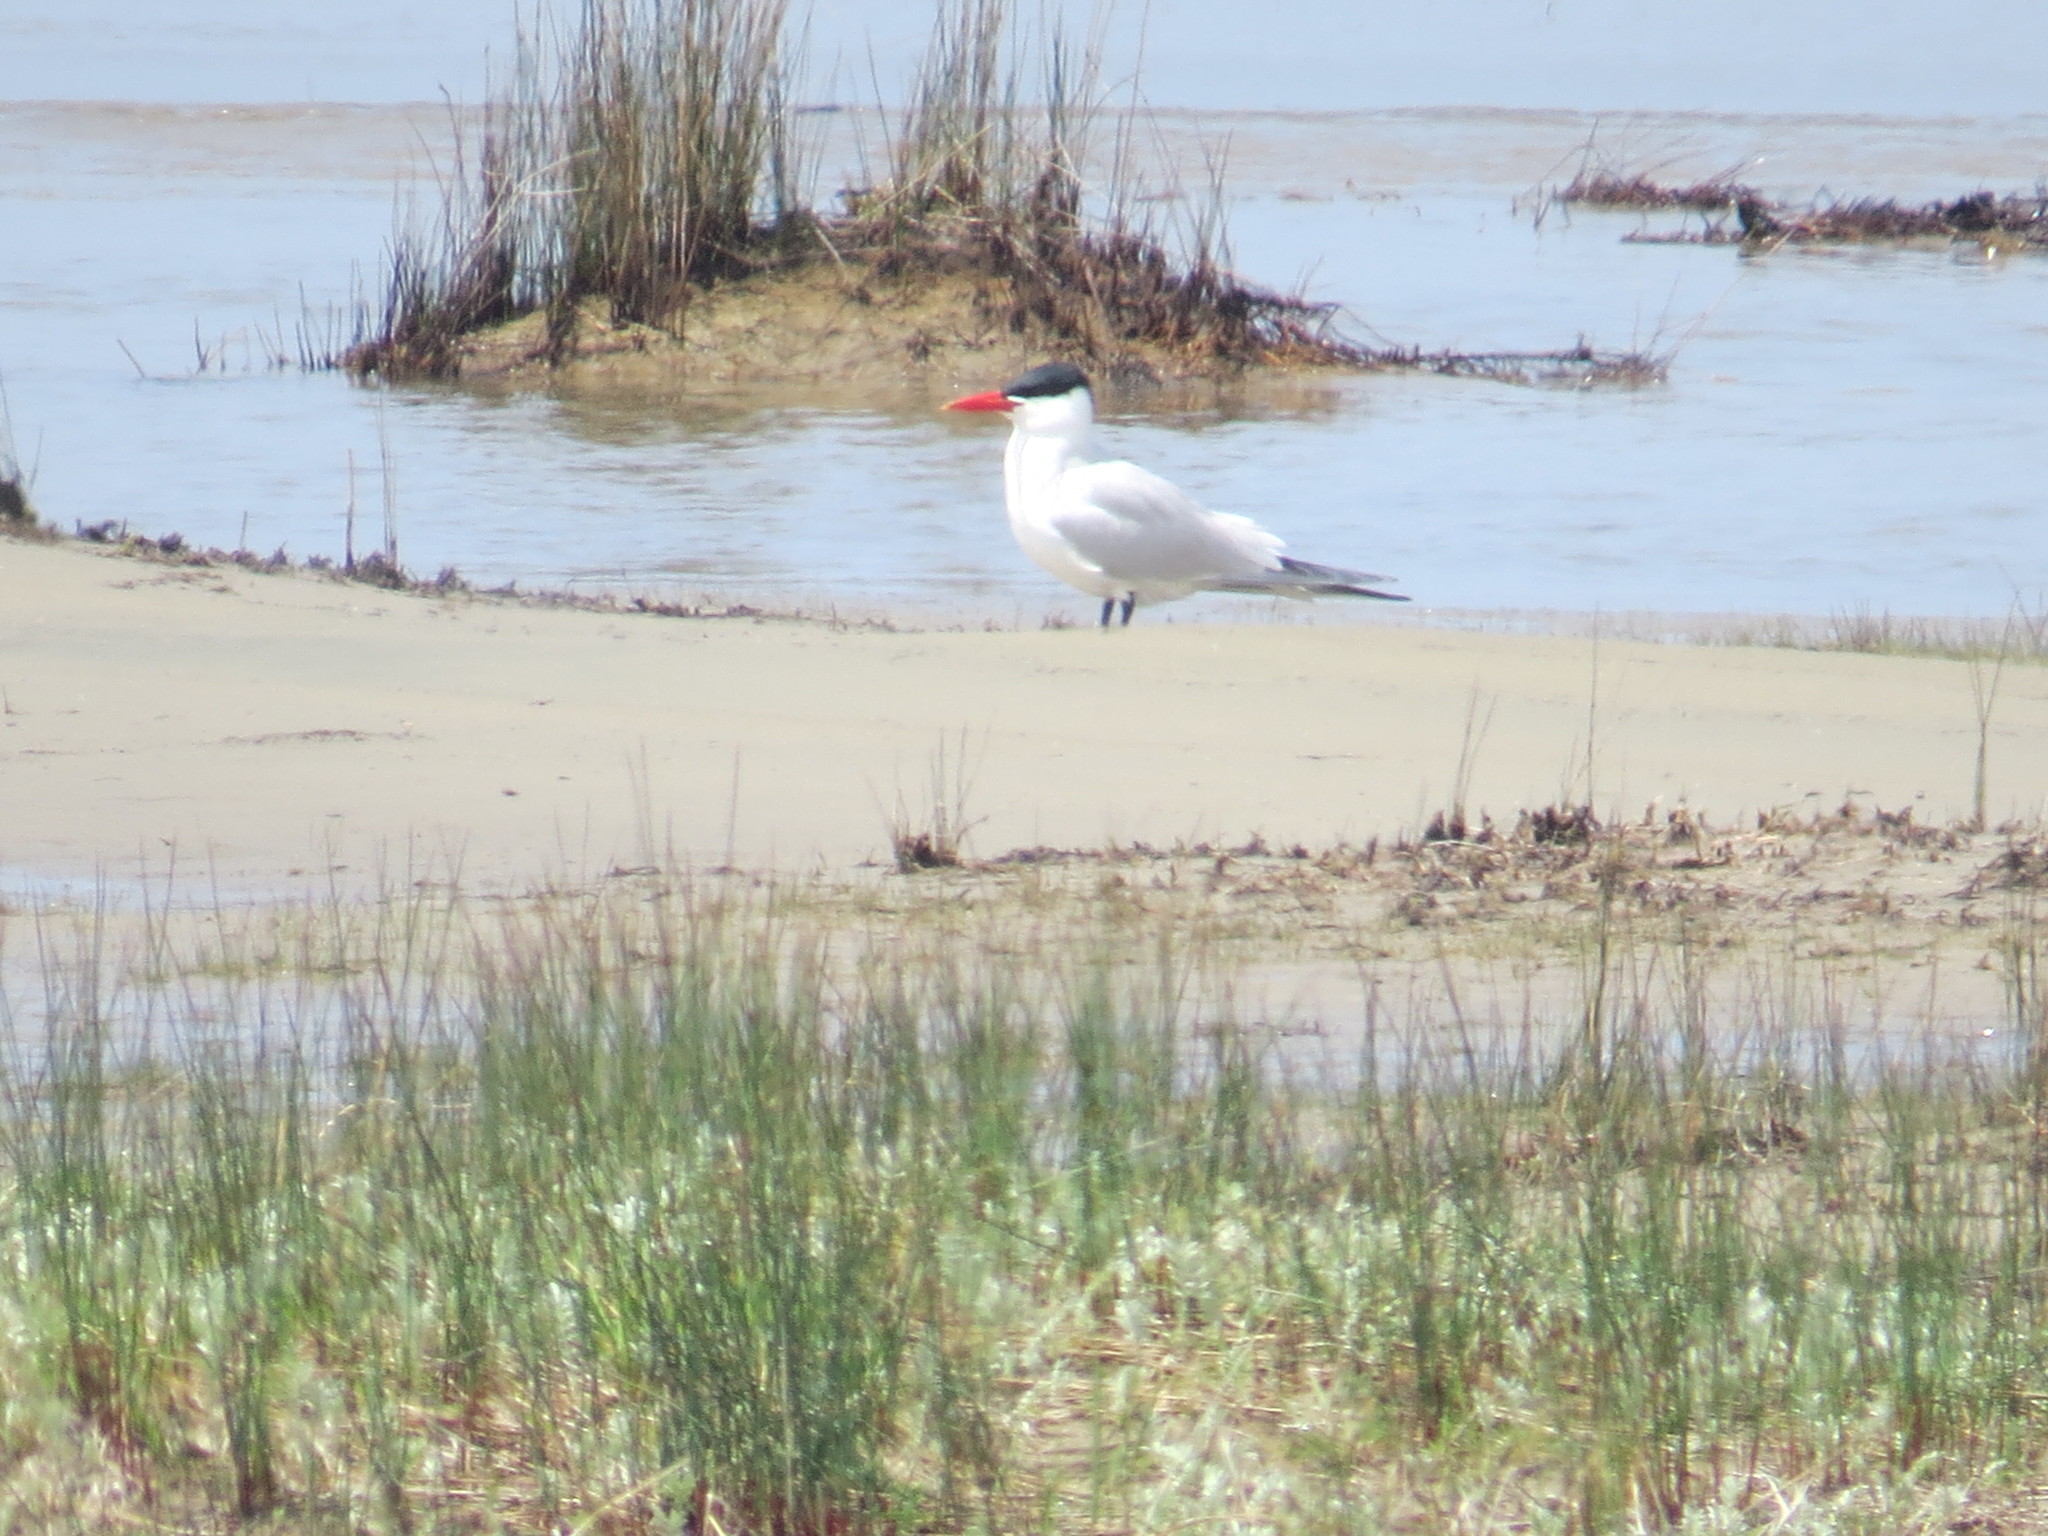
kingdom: Animalia
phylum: Chordata
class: Aves
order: Charadriiformes
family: Laridae
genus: Hydroprogne
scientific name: Hydroprogne caspia
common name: Caspian tern
